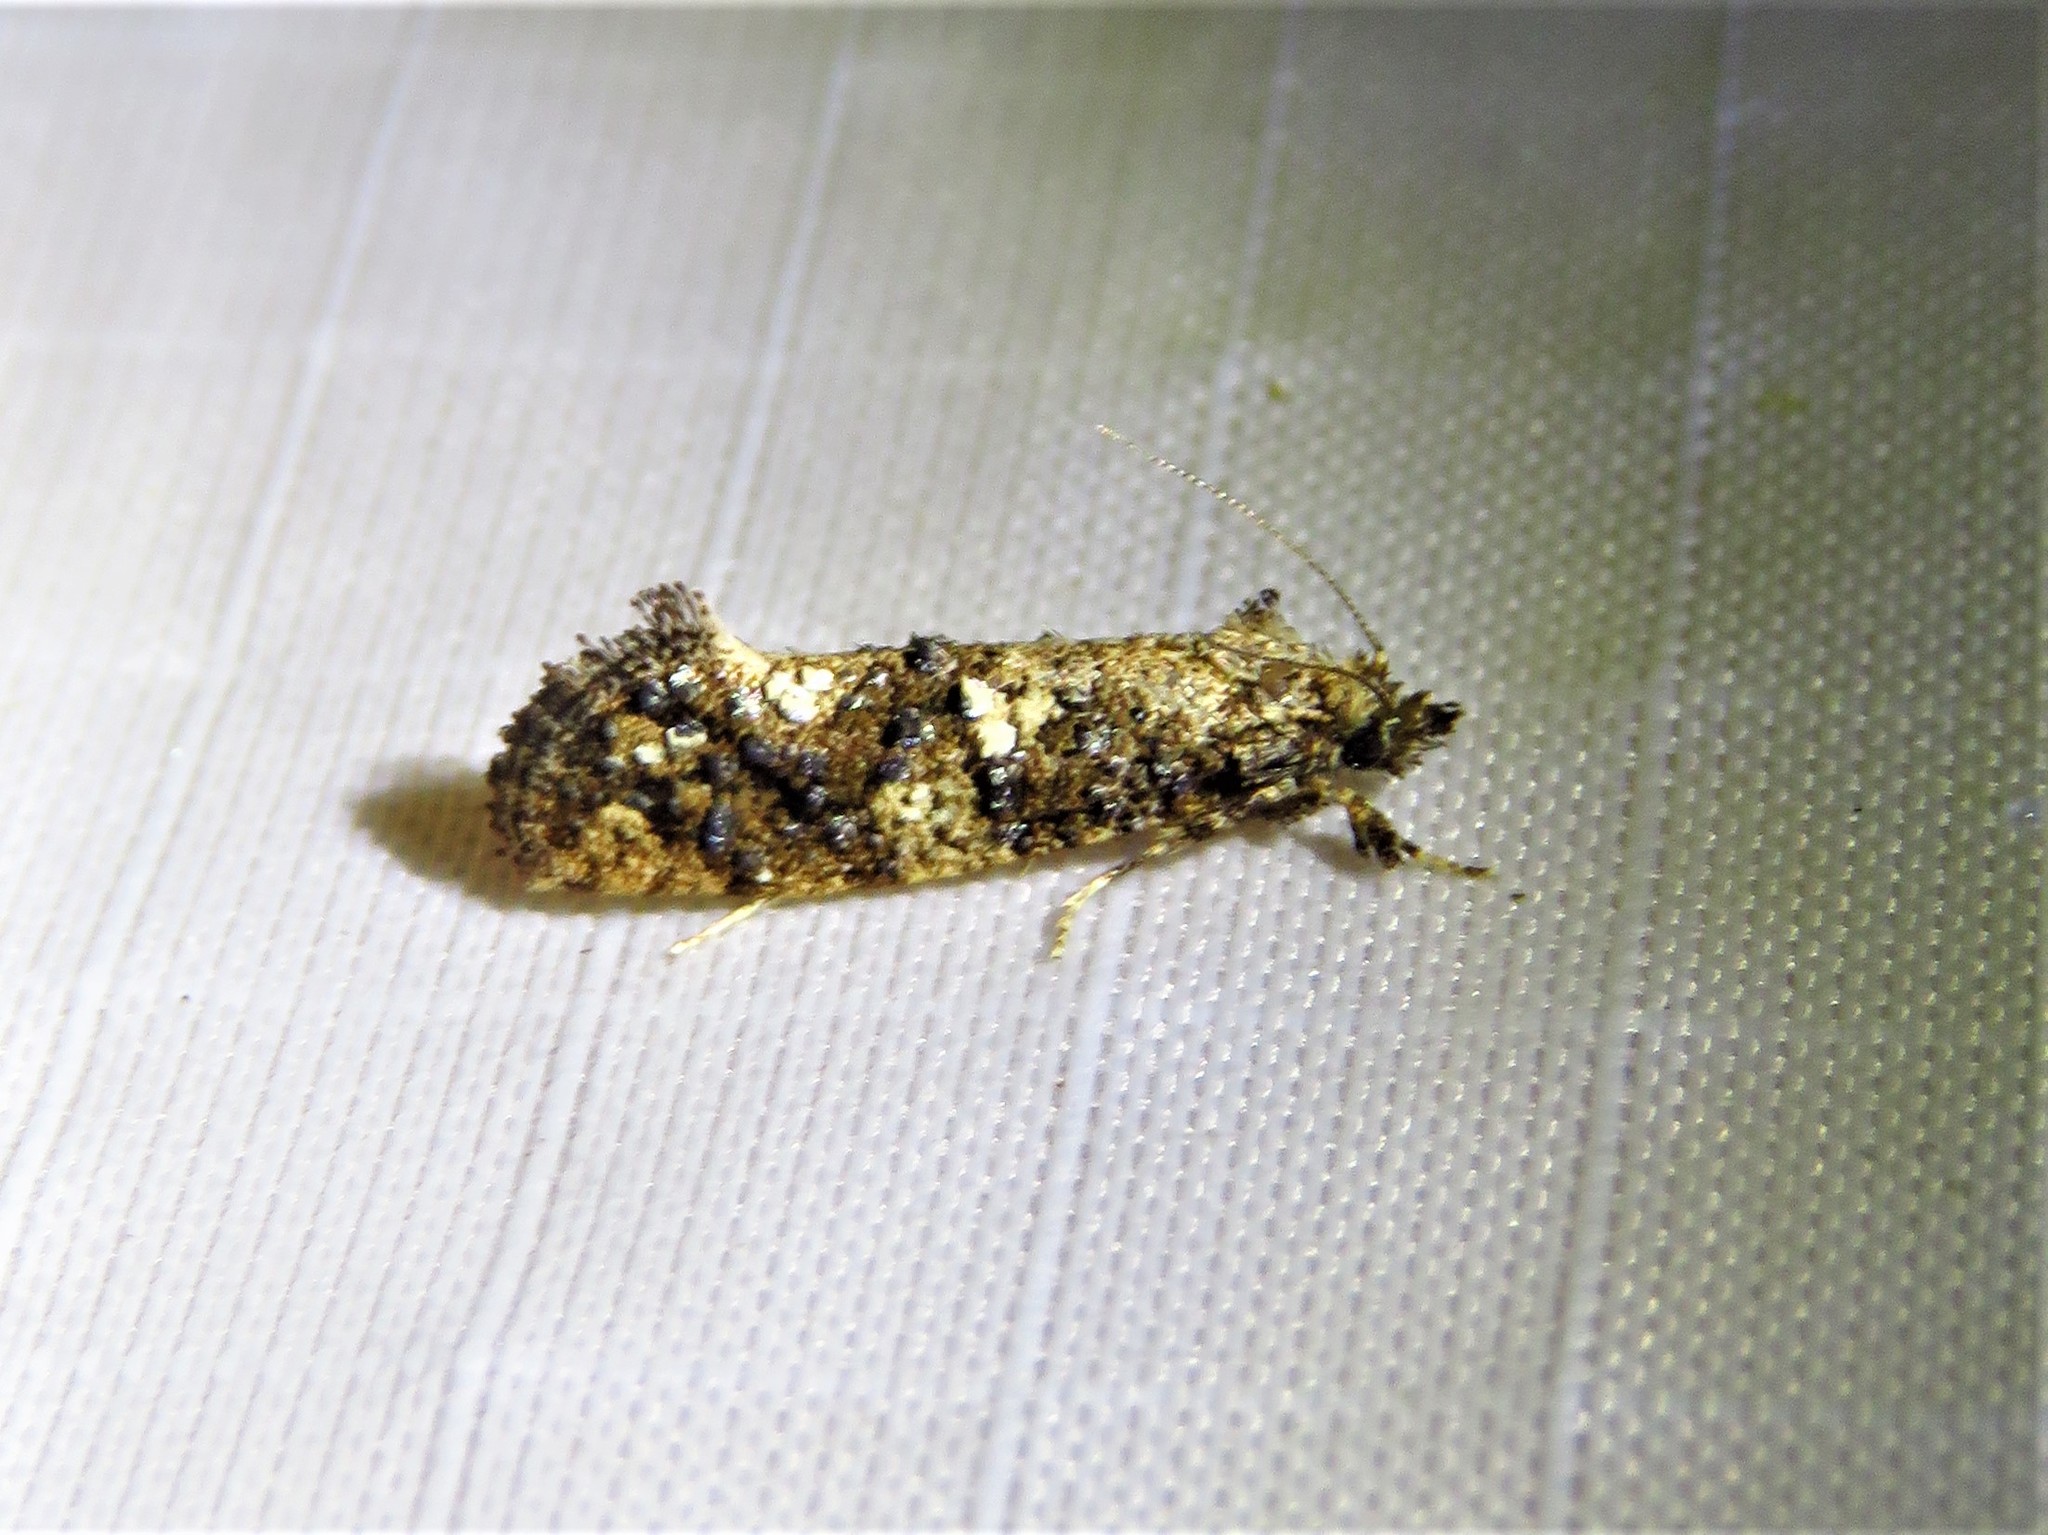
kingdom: Animalia
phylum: Arthropoda
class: Insecta
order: Lepidoptera
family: Tineidae
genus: Acrolophus
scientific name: Acrolophus cressoni
